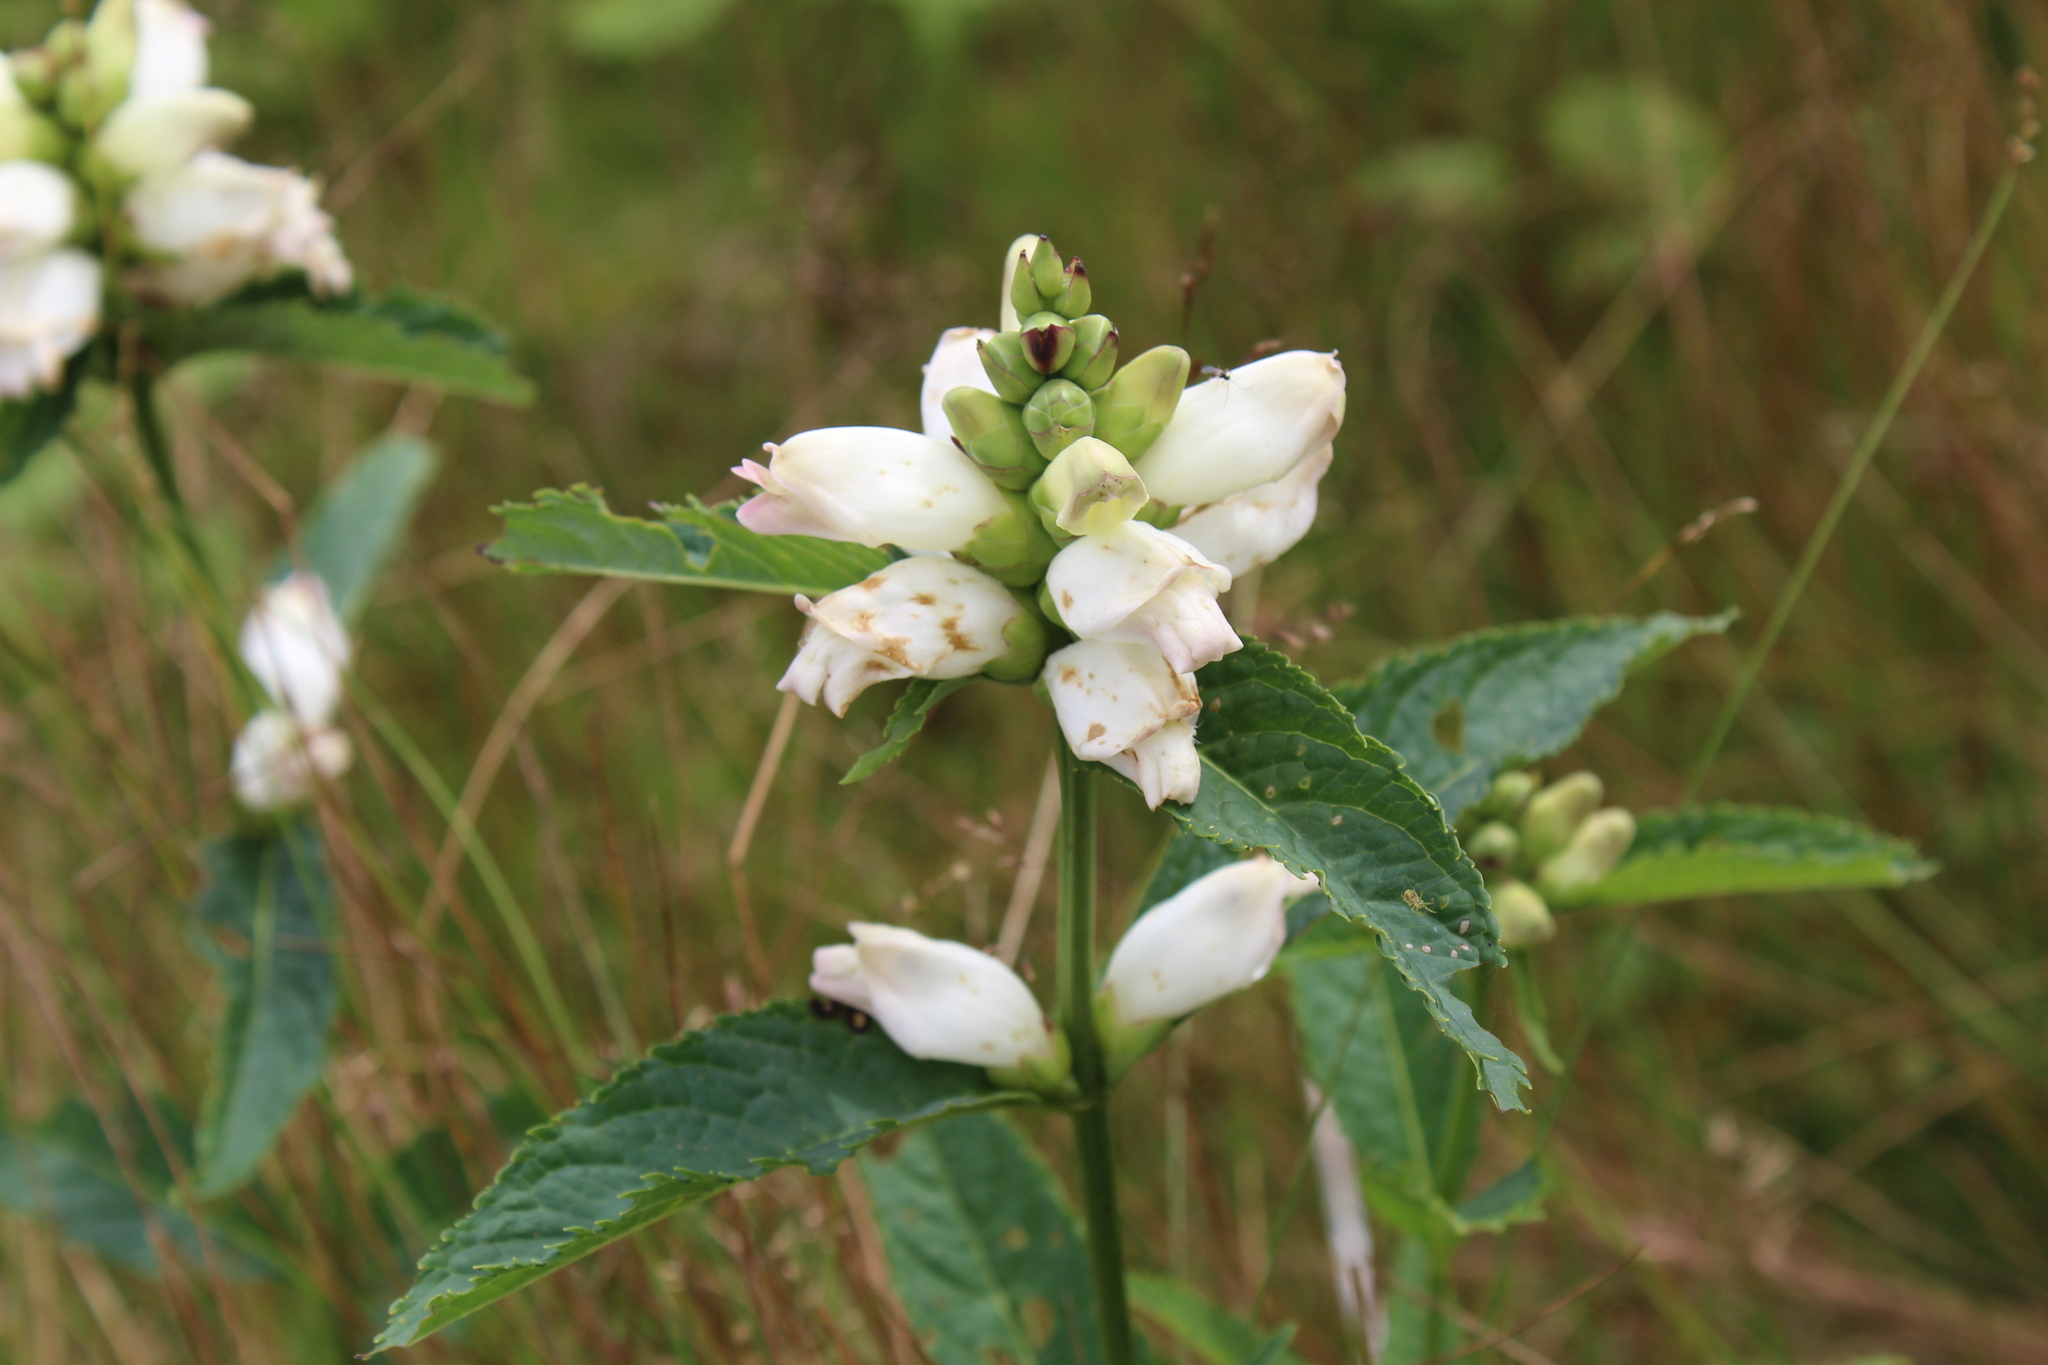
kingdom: Plantae
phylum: Tracheophyta
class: Magnoliopsida
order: Lamiales
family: Plantaginaceae
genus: Chelone
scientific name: Chelone glabra
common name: Snakehead
